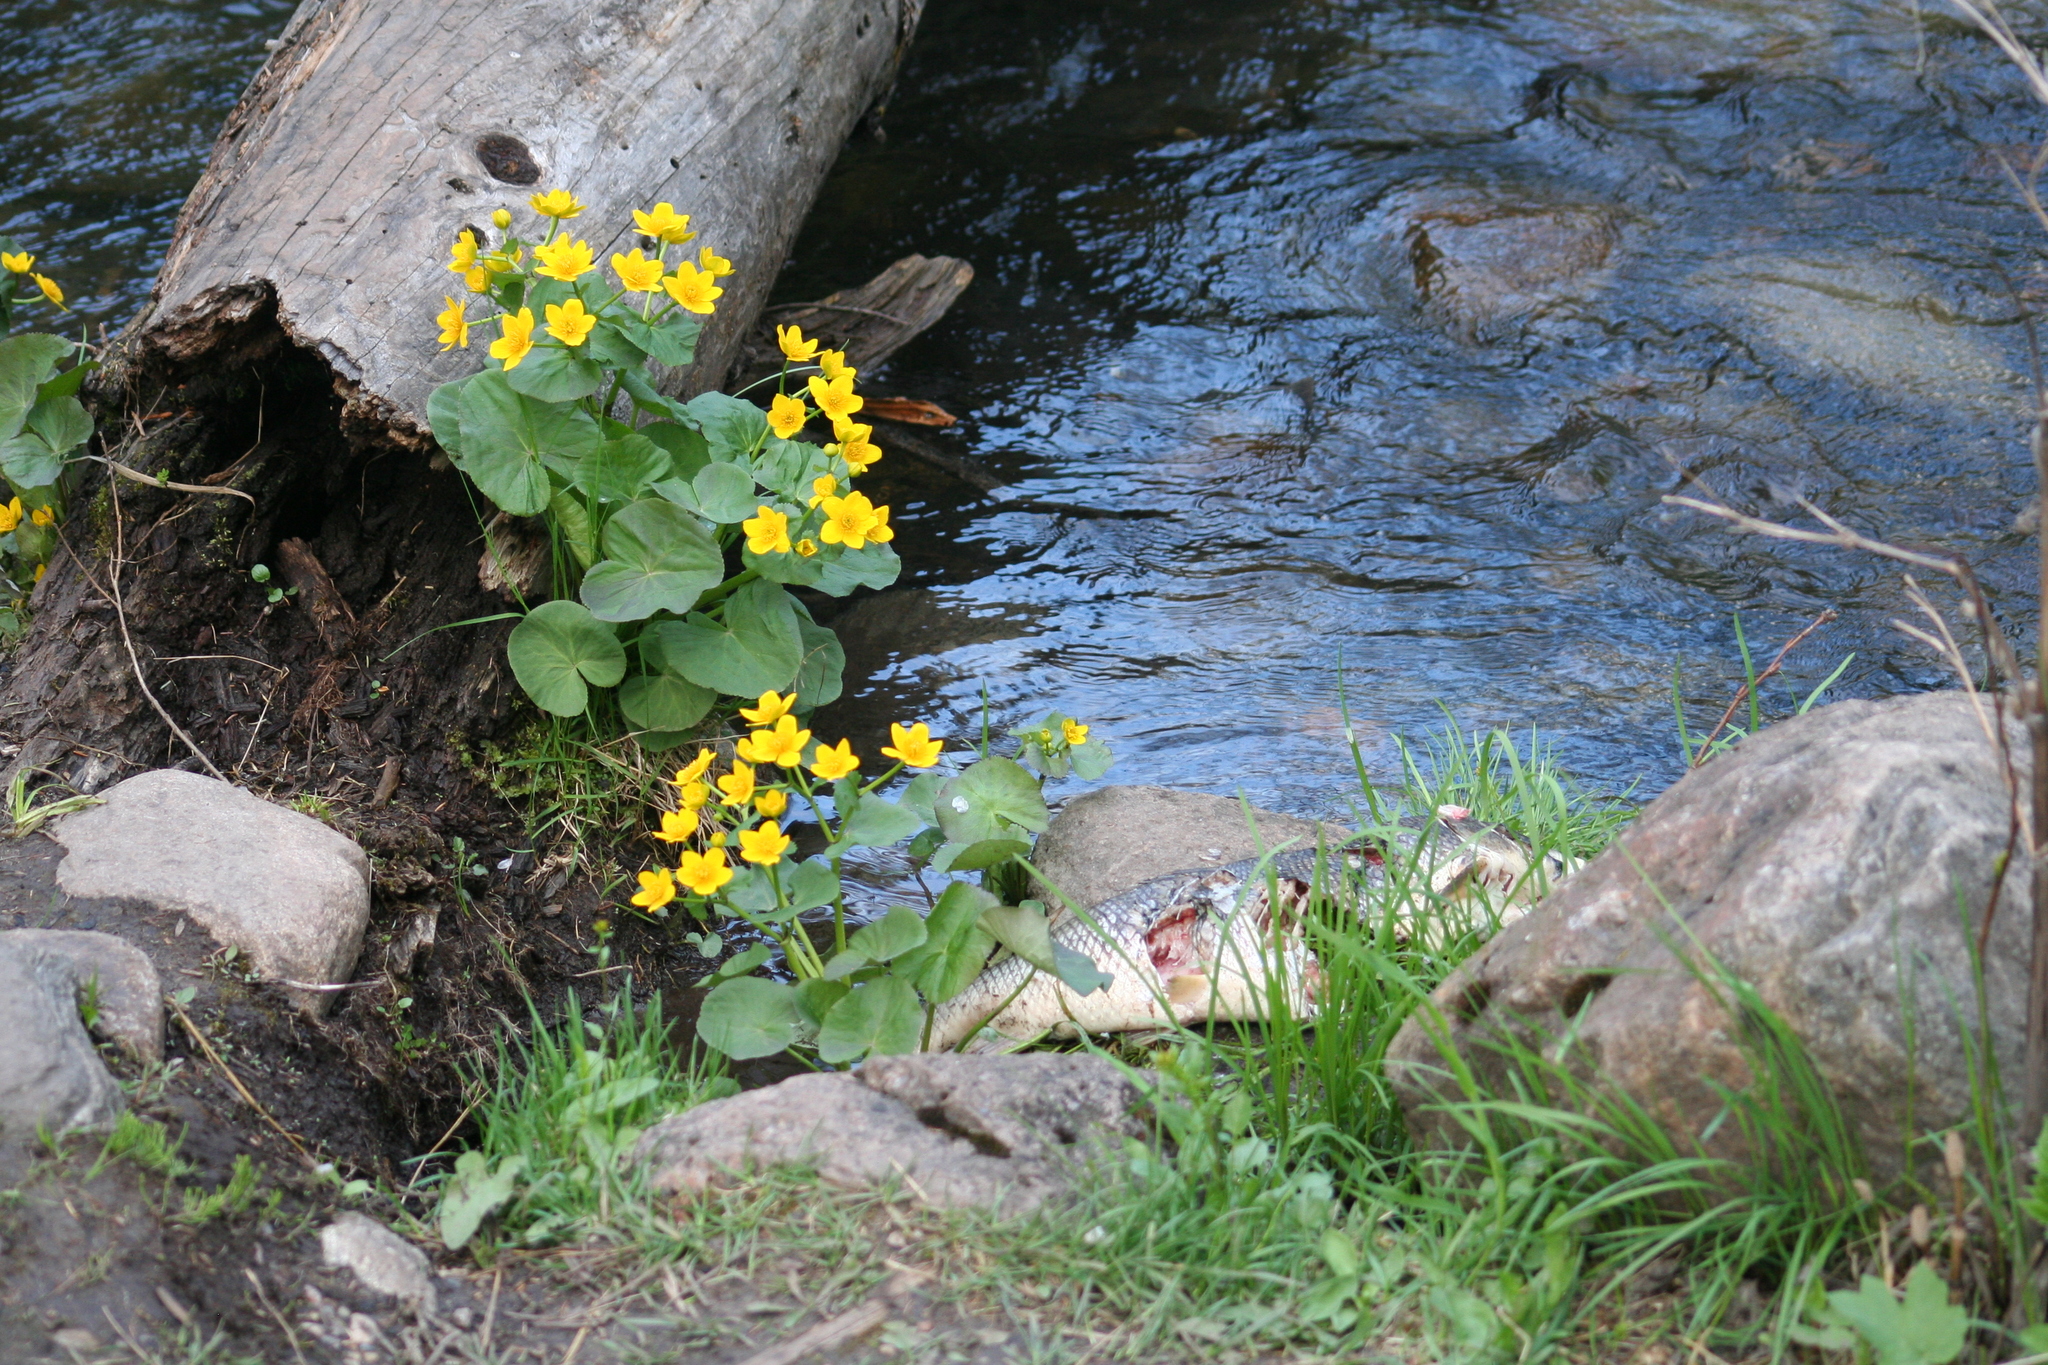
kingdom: Animalia
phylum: Chordata
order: Cypriniformes
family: Catostomidae
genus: Catostomus
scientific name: Catostomus commersonii
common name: White sucker
